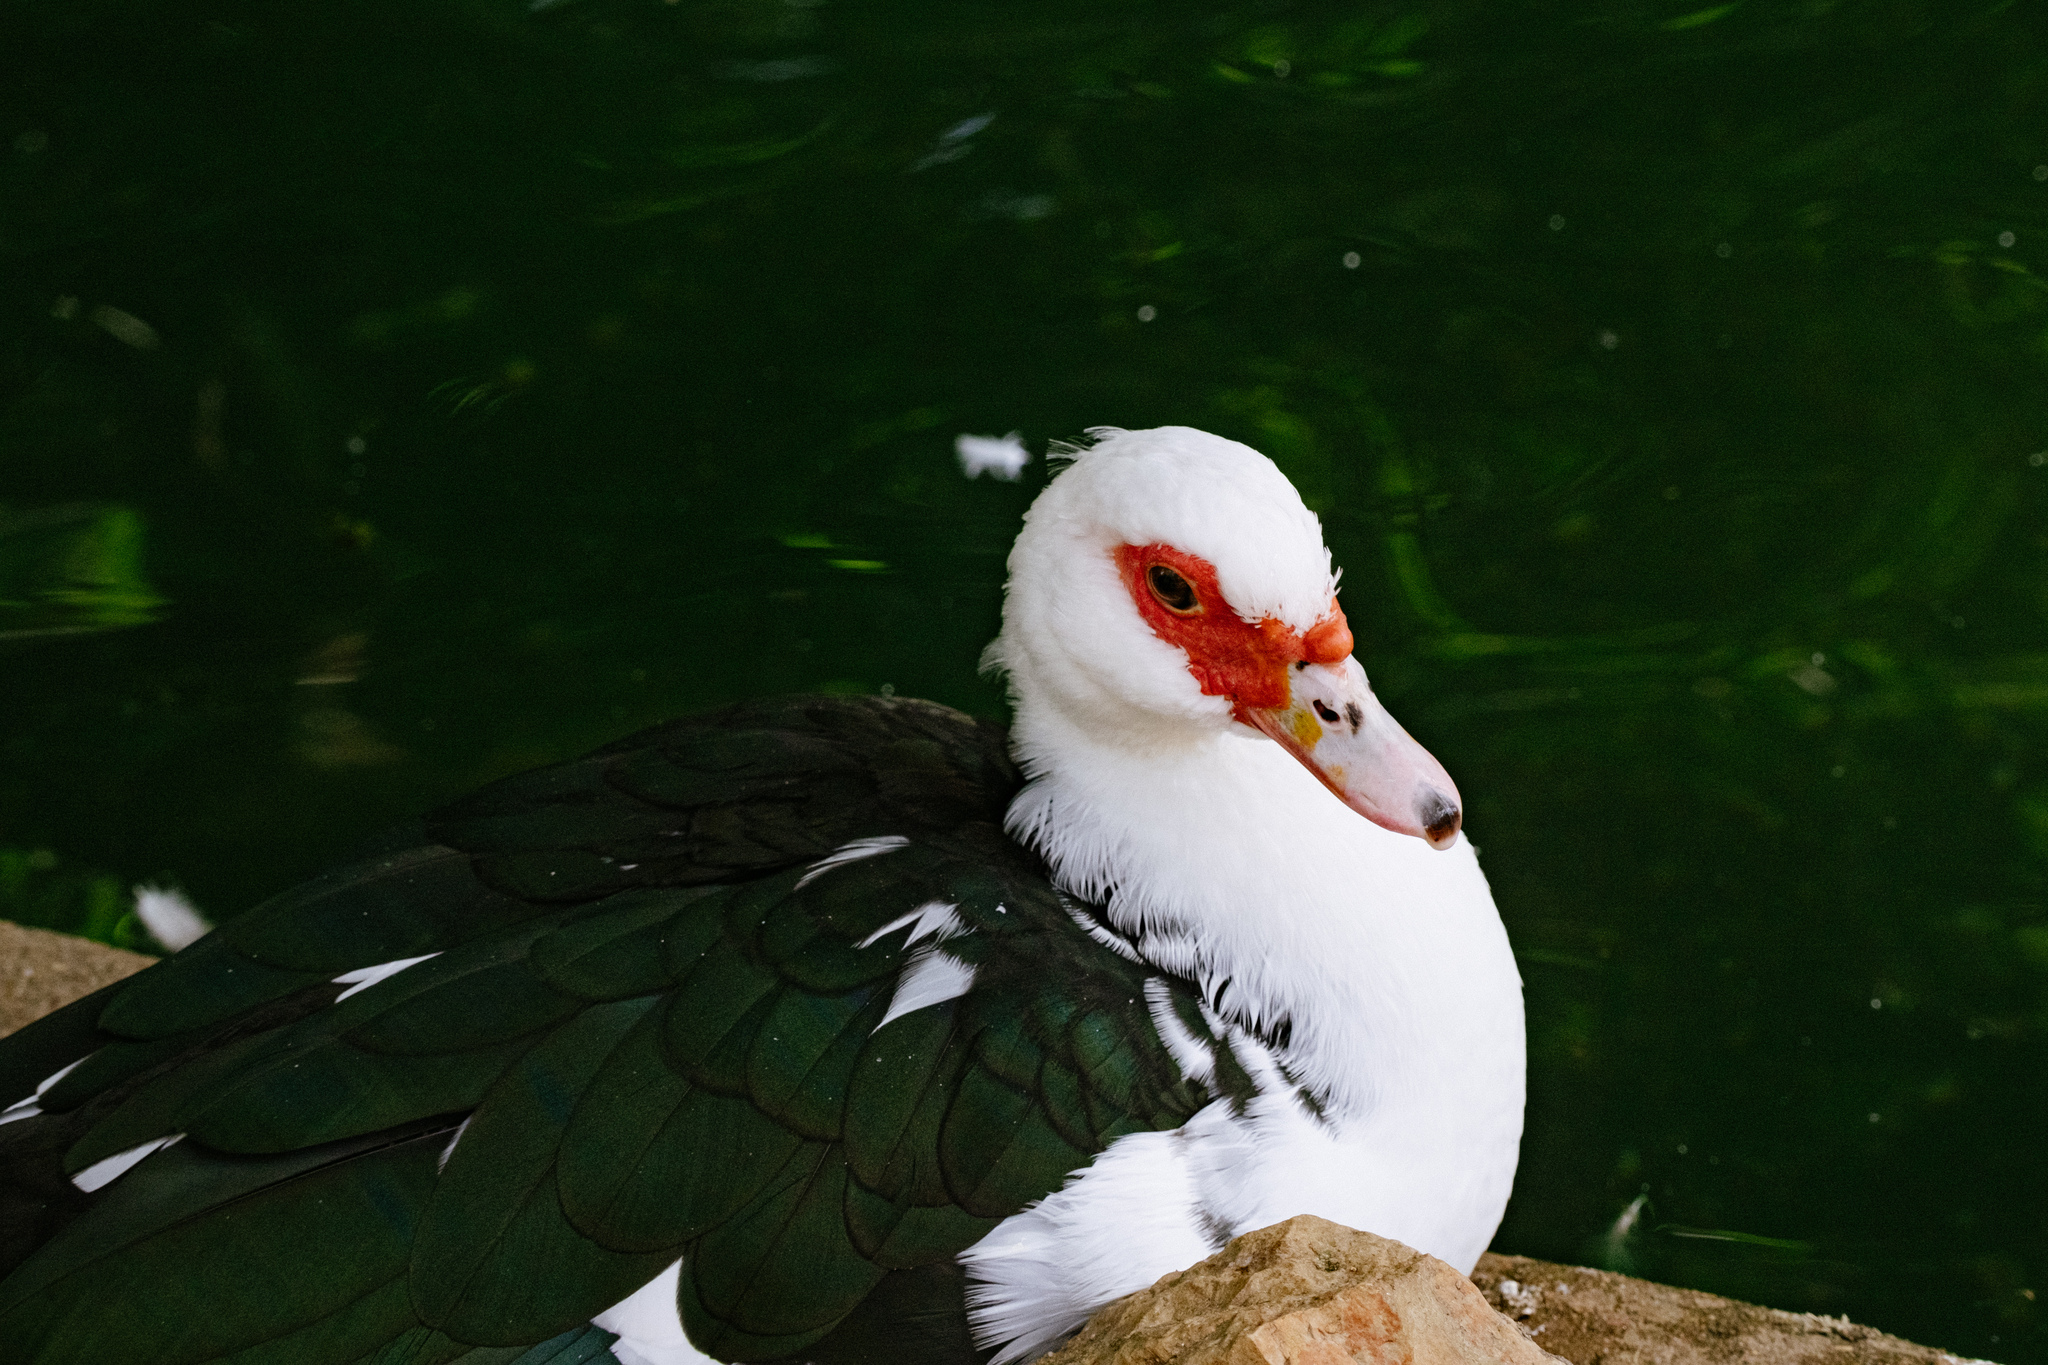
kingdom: Animalia
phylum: Chordata
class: Aves
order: Anseriformes
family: Anatidae
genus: Cairina
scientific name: Cairina moschata
